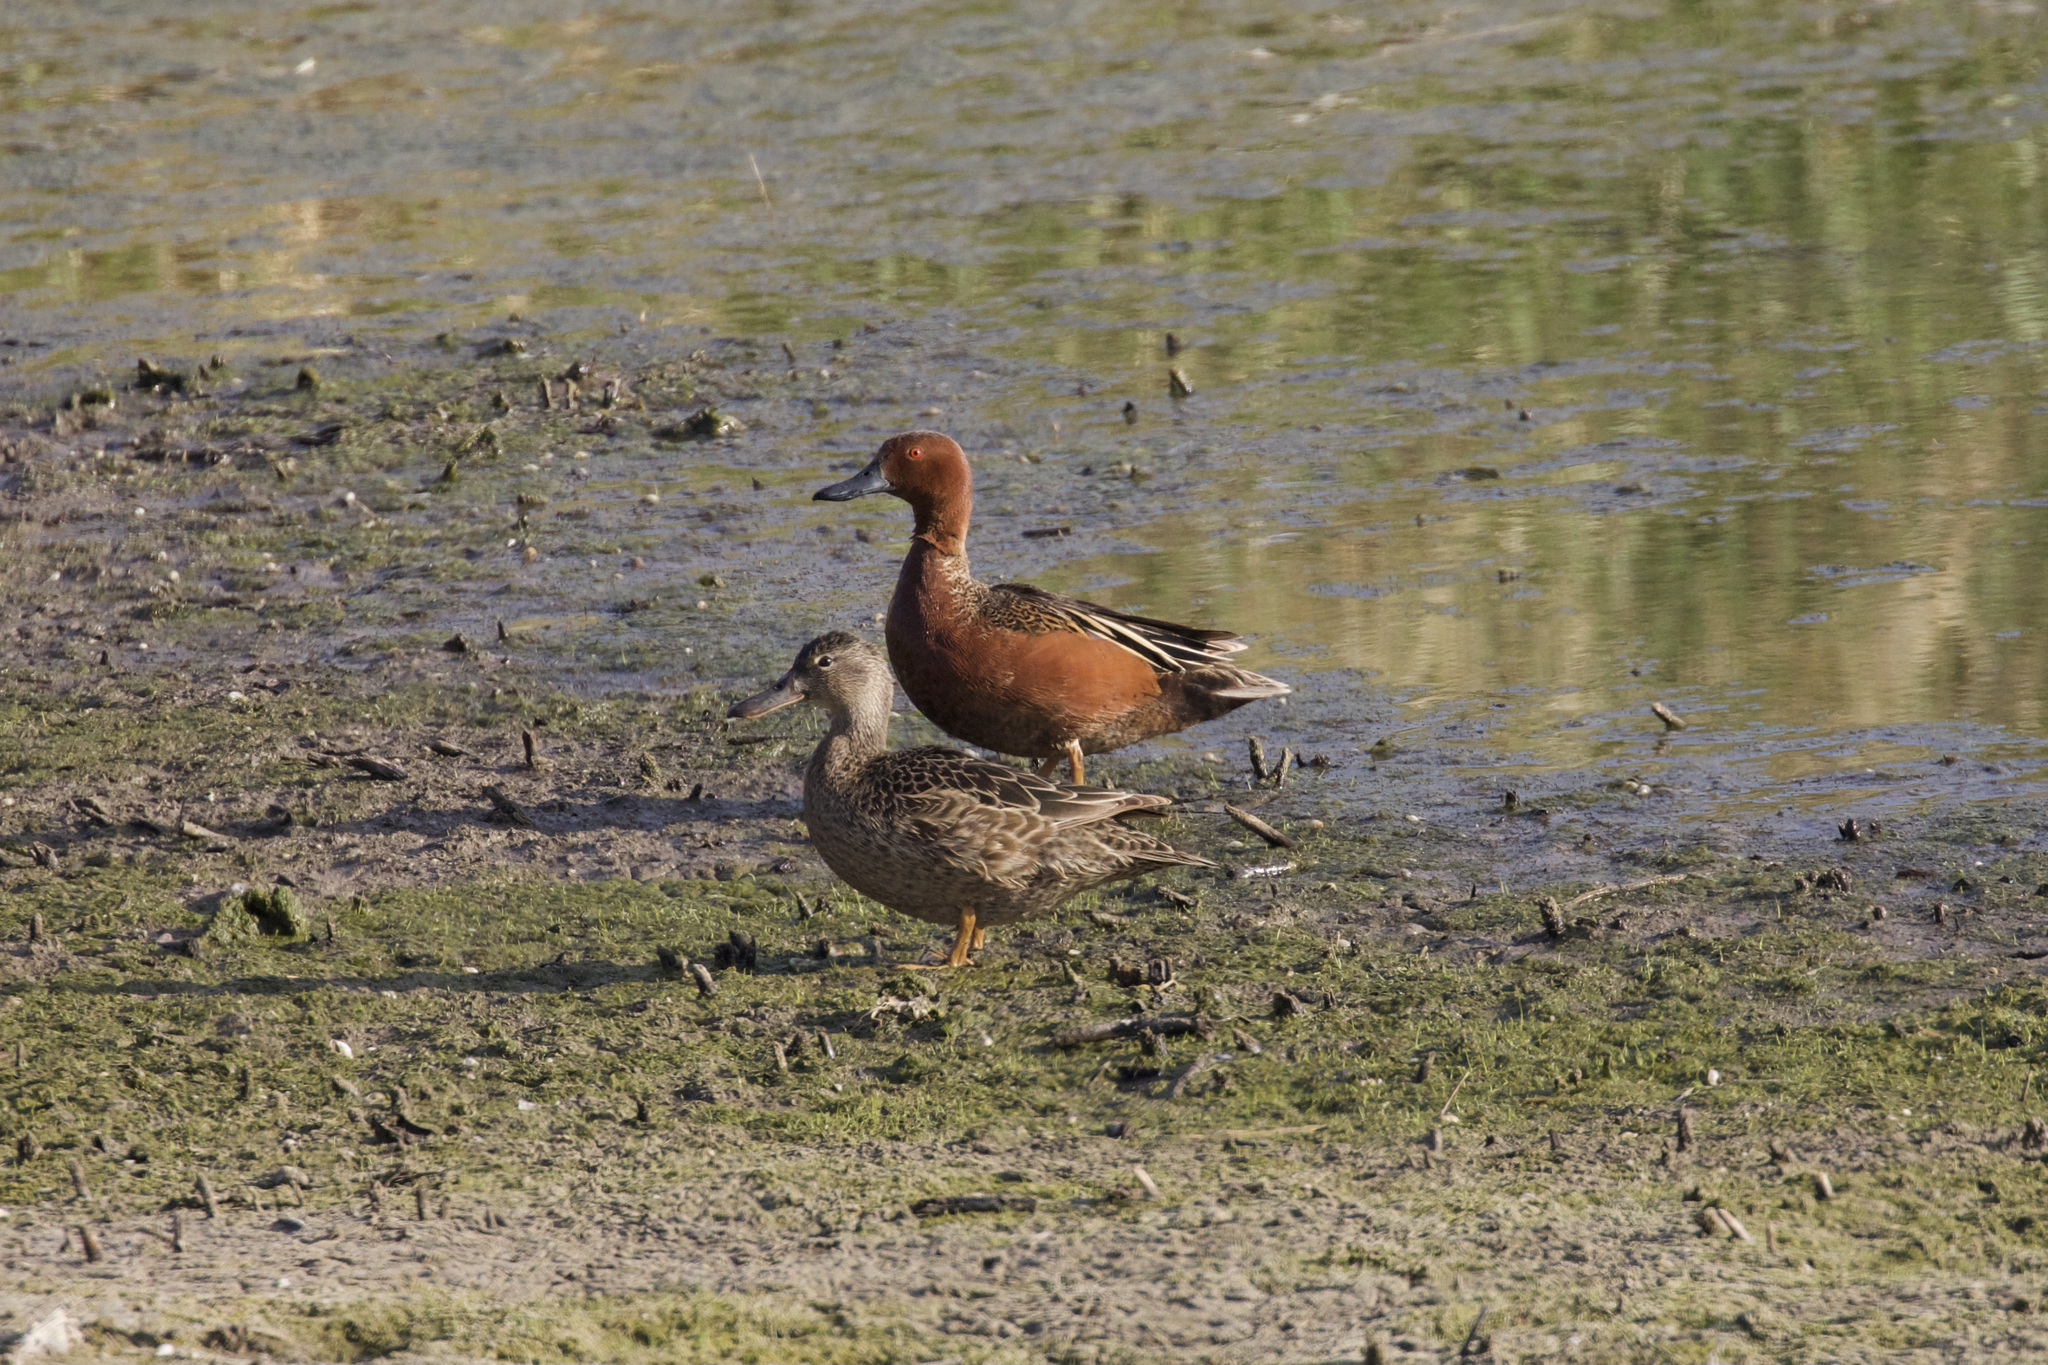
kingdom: Animalia
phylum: Chordata
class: Aves
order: Anseriformes
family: Anatidae
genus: Spatula
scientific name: Spatula cyanoptera
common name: Cinnamon teal
